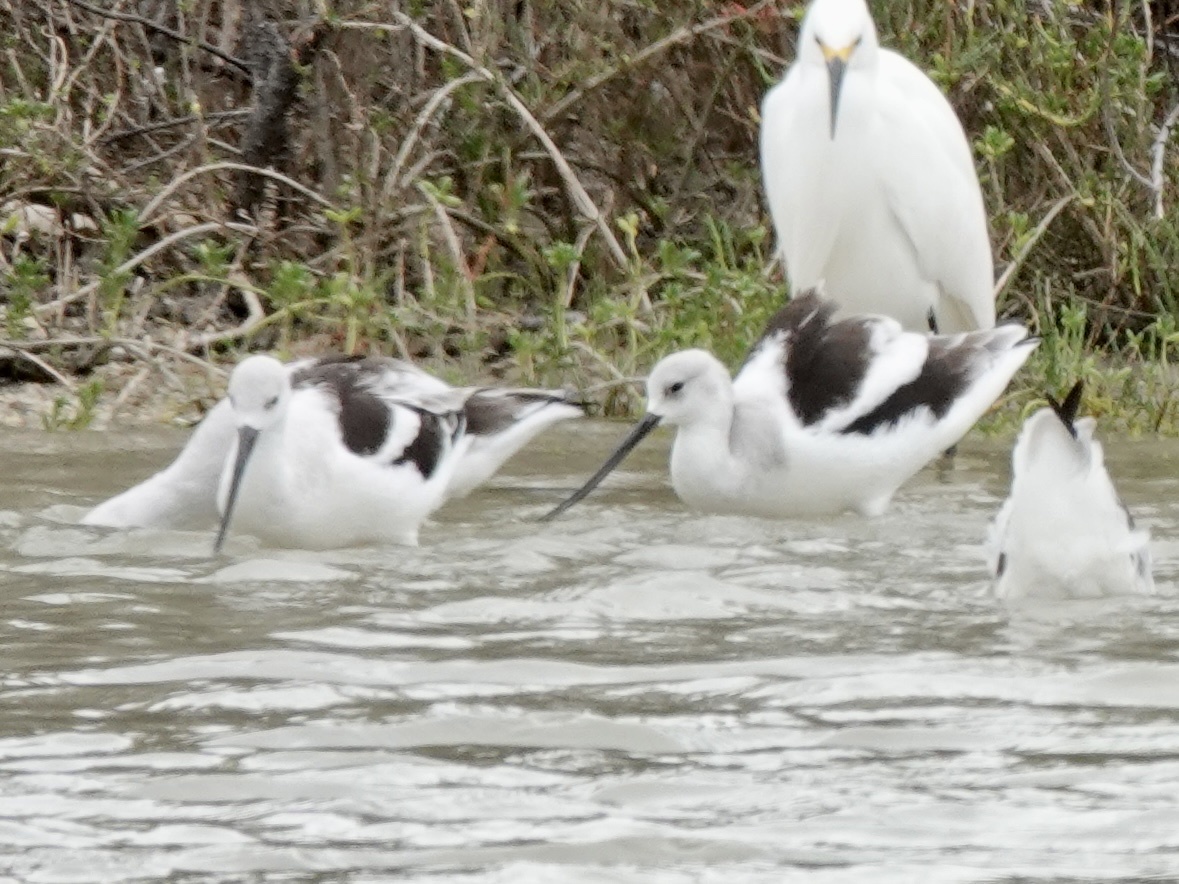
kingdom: Animalia
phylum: Chordata
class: Aves
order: Charadriiformes
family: Recurvirostridae
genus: Recurvirostra
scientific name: Recurvirostra americana
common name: American avocet
